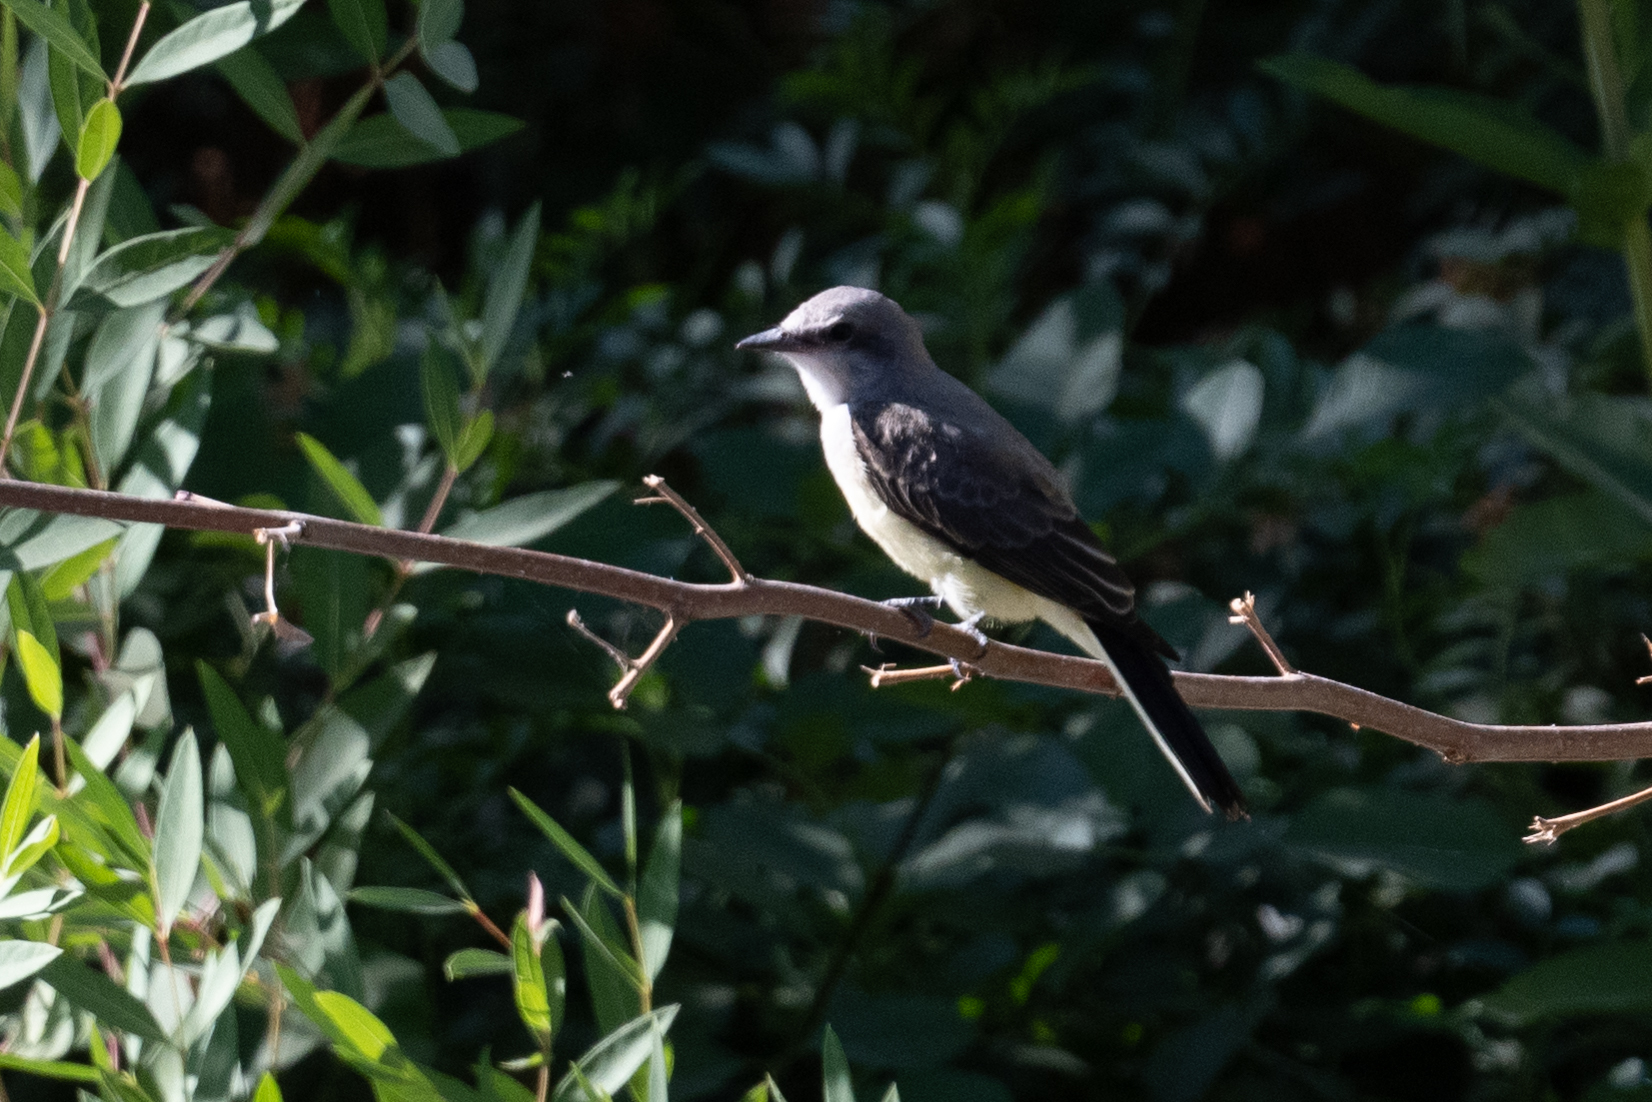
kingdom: Animalia
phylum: Chordata
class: Aves
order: Passeriformes
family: Tyrannidae
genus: Tyrannus
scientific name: Tyrannus verticalis
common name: Western kingbird
